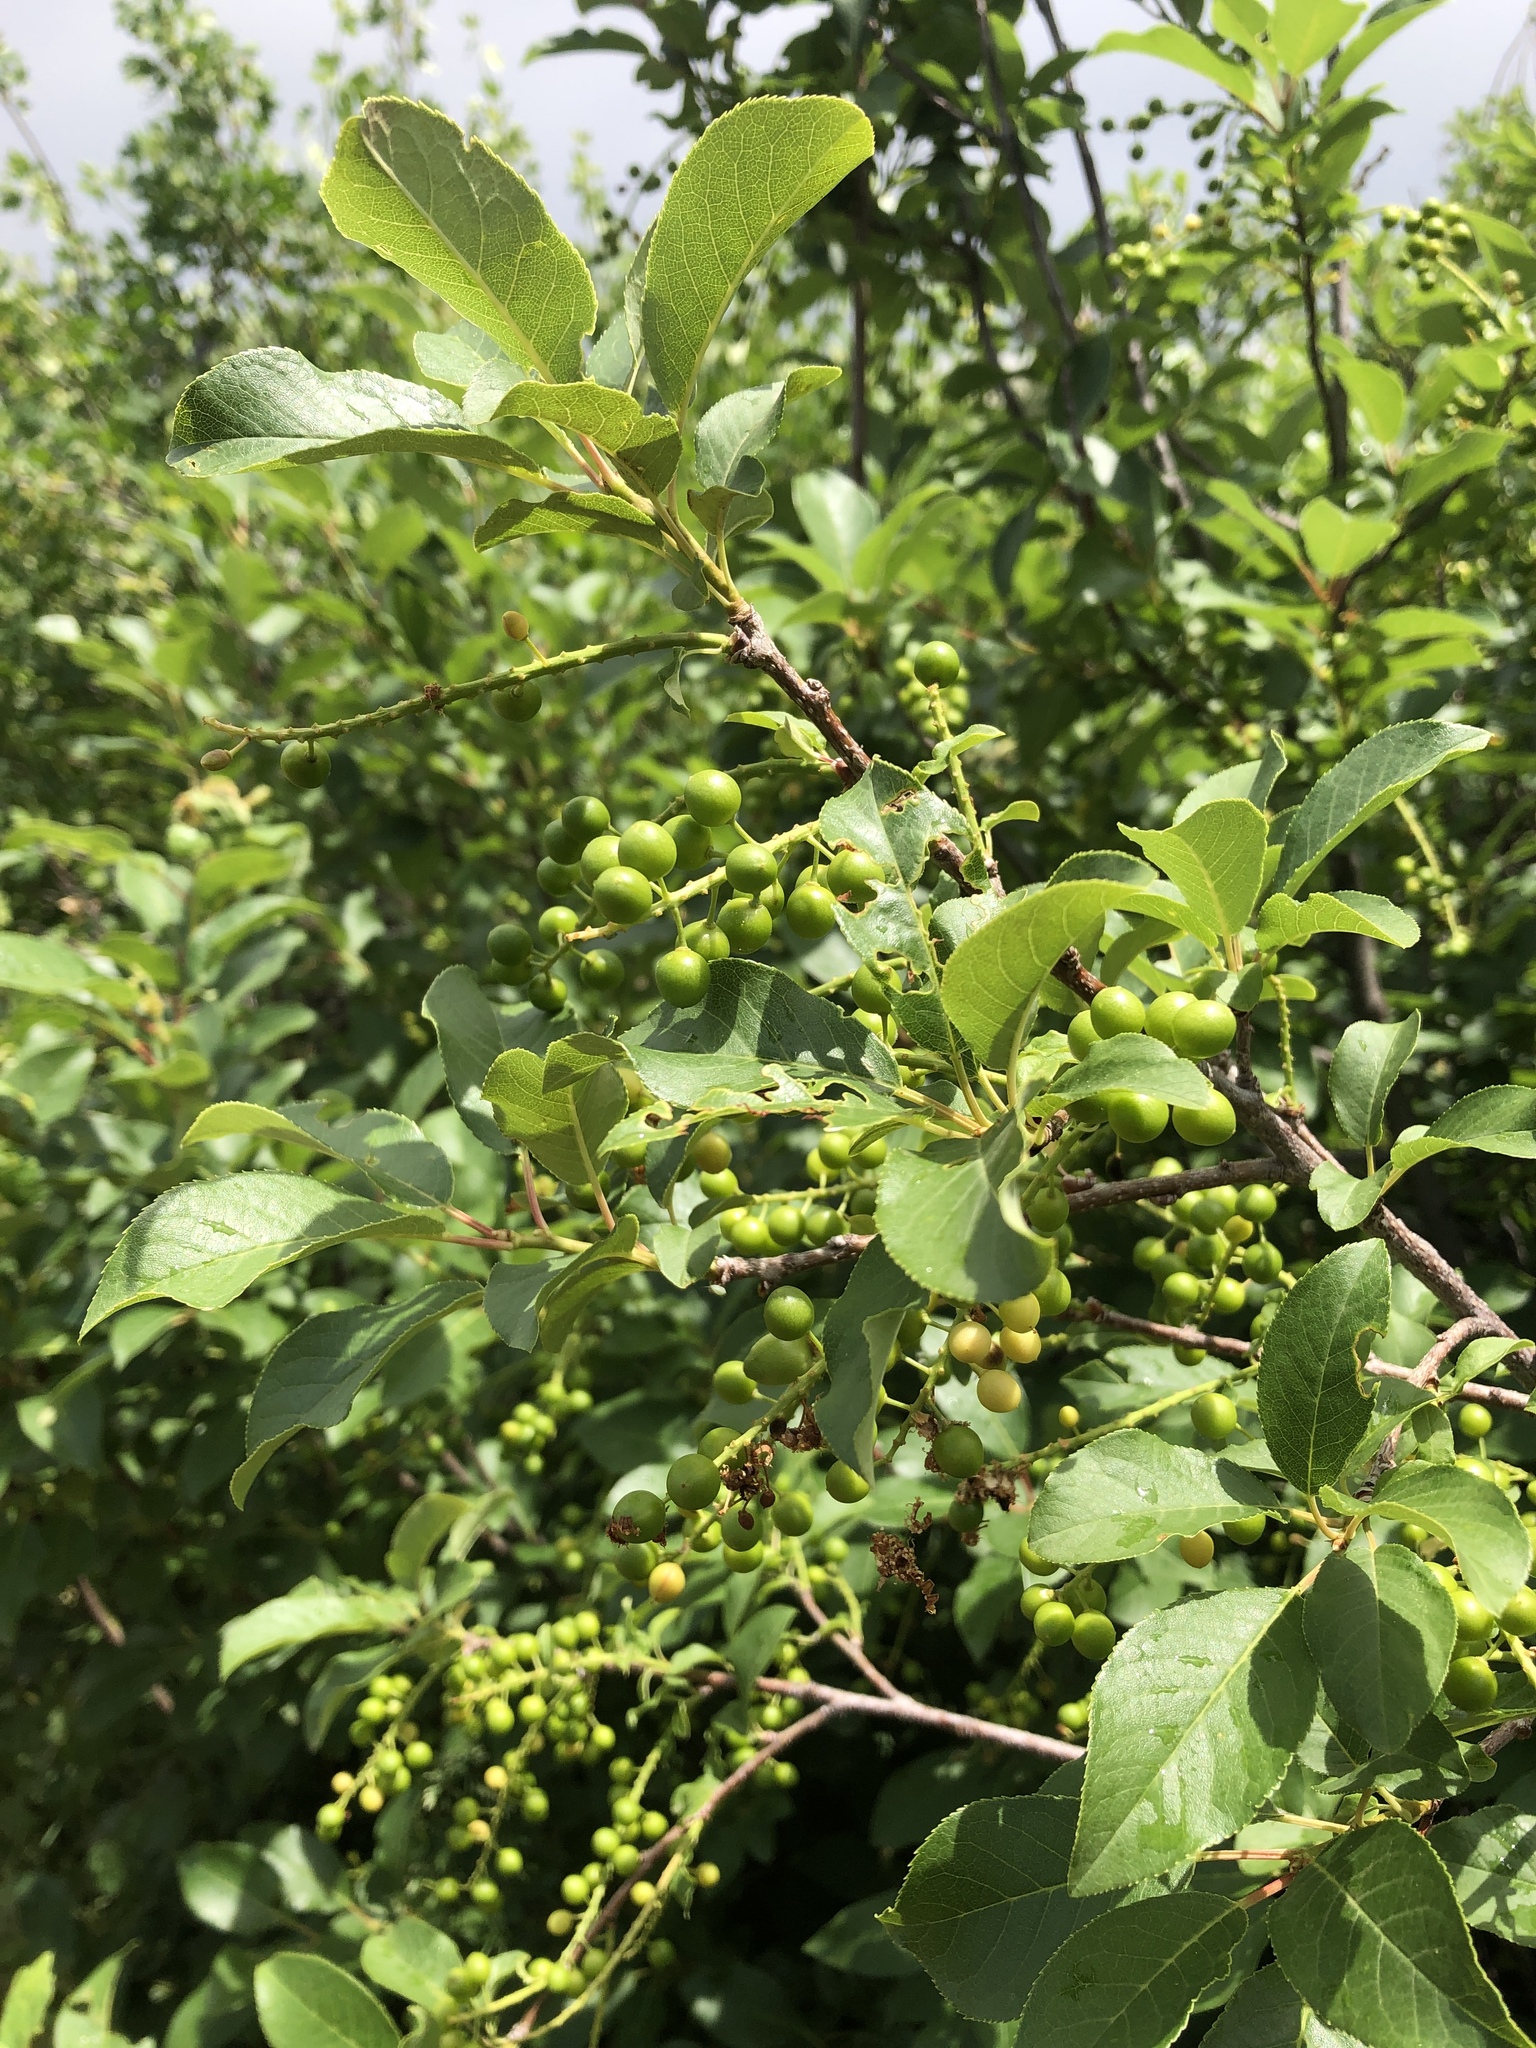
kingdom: Plantae
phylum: Tracheophyta
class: Magnoliopsida
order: Rosales
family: Rosaceae
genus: Prunus
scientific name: Prunus virginiana
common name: Chokecherry
